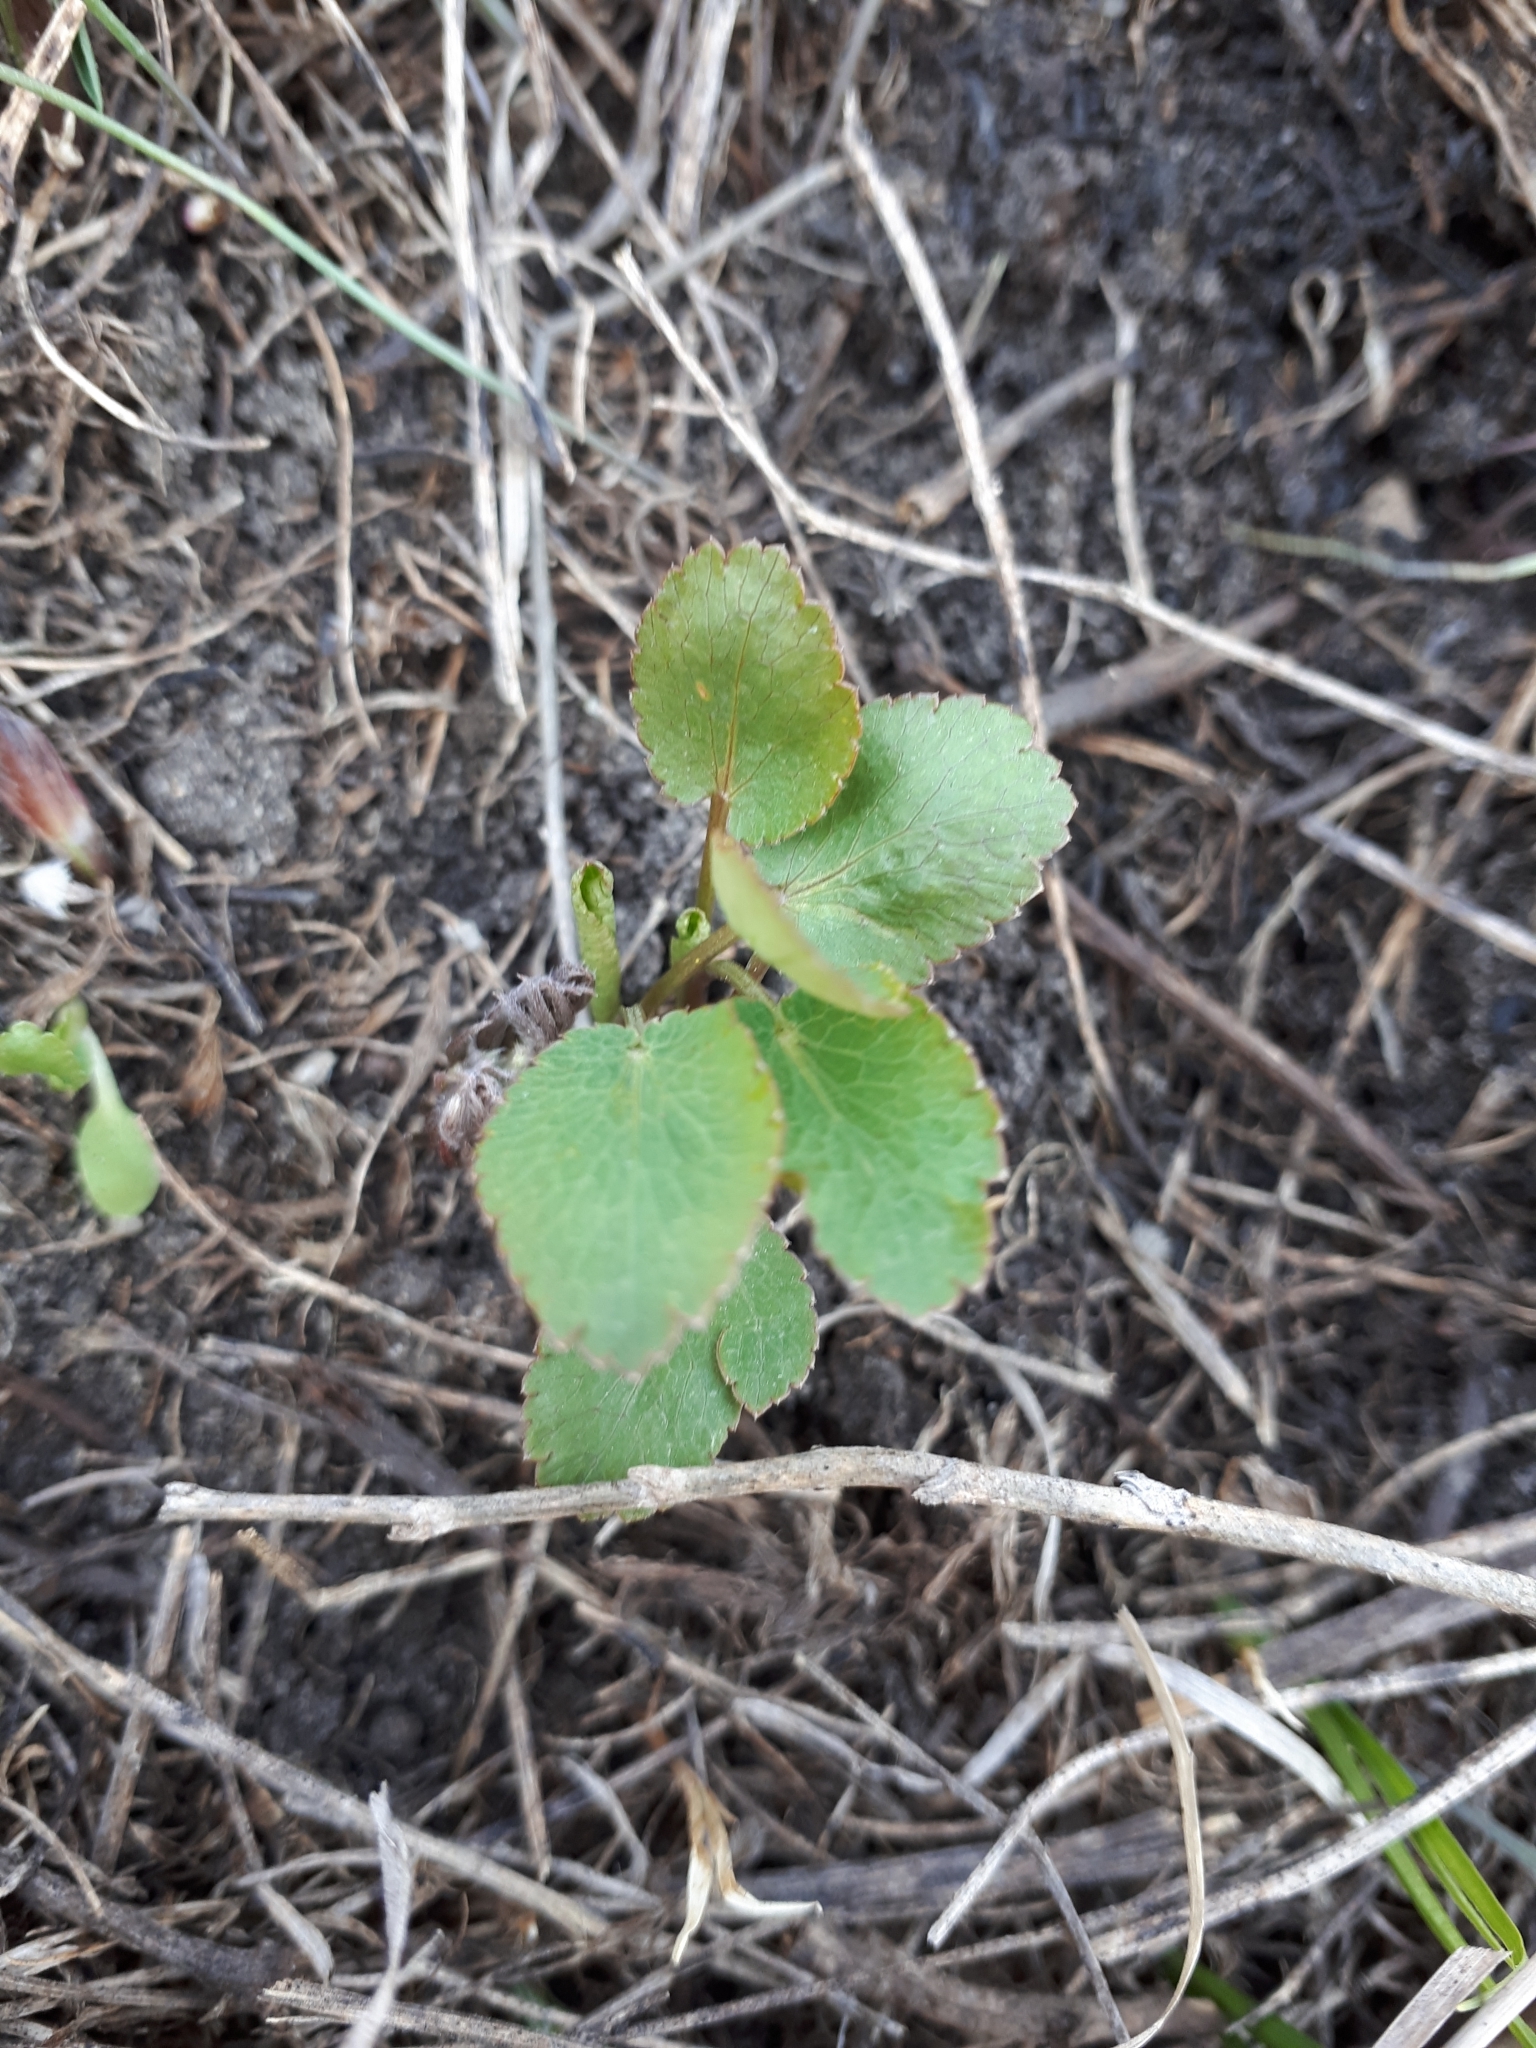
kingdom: Plantae
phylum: Tracheophyta
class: Magnoliopsida
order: Apiales
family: Apiaceae
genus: Eryngium
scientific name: Eryngium planum
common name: Blue eryngo
